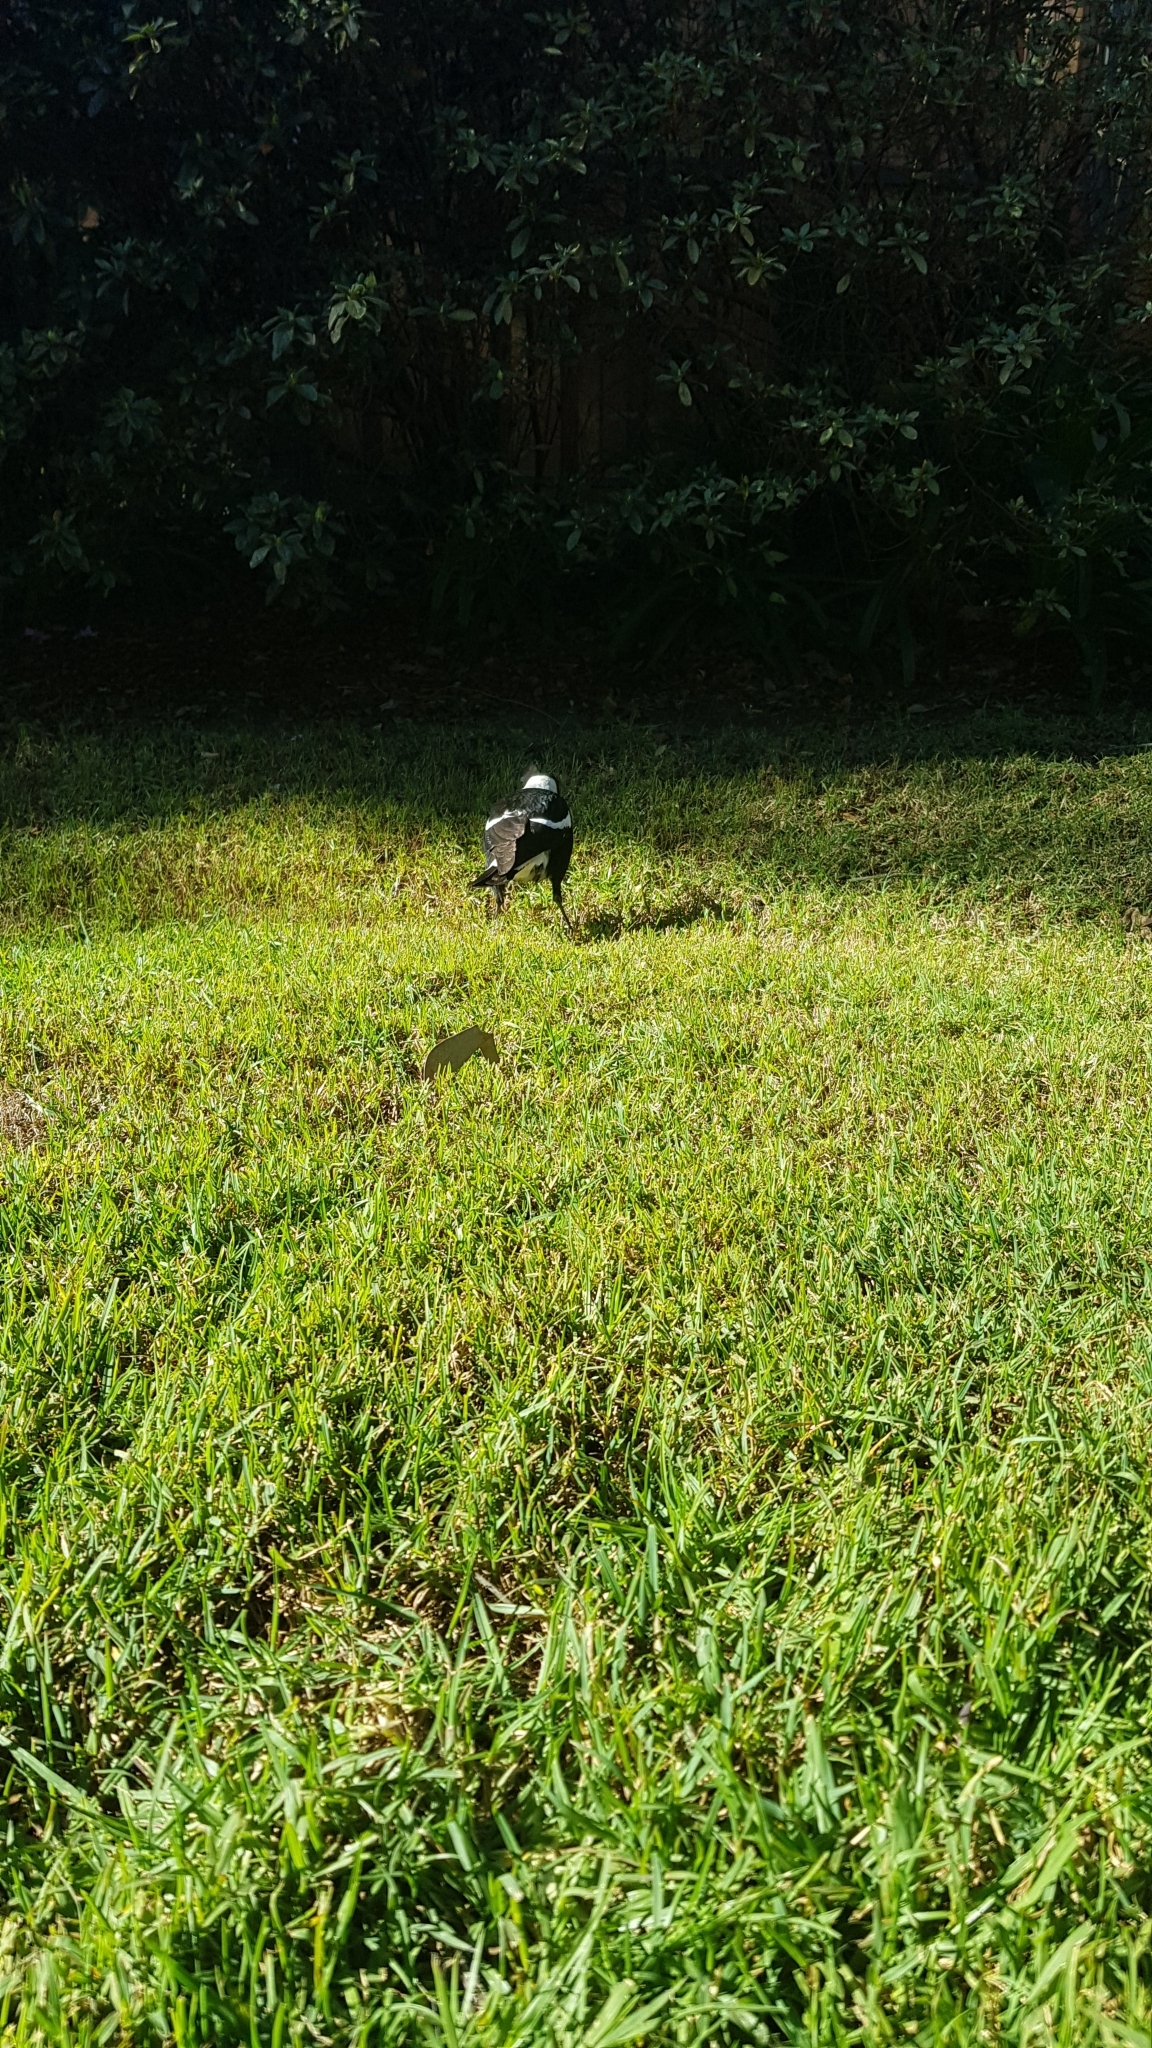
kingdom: Animalia
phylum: Chordata
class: Aves
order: Passeriformes
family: Cracticidae
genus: Gymnorhina
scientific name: Gymnorhina tibicen
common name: Australian magpie
